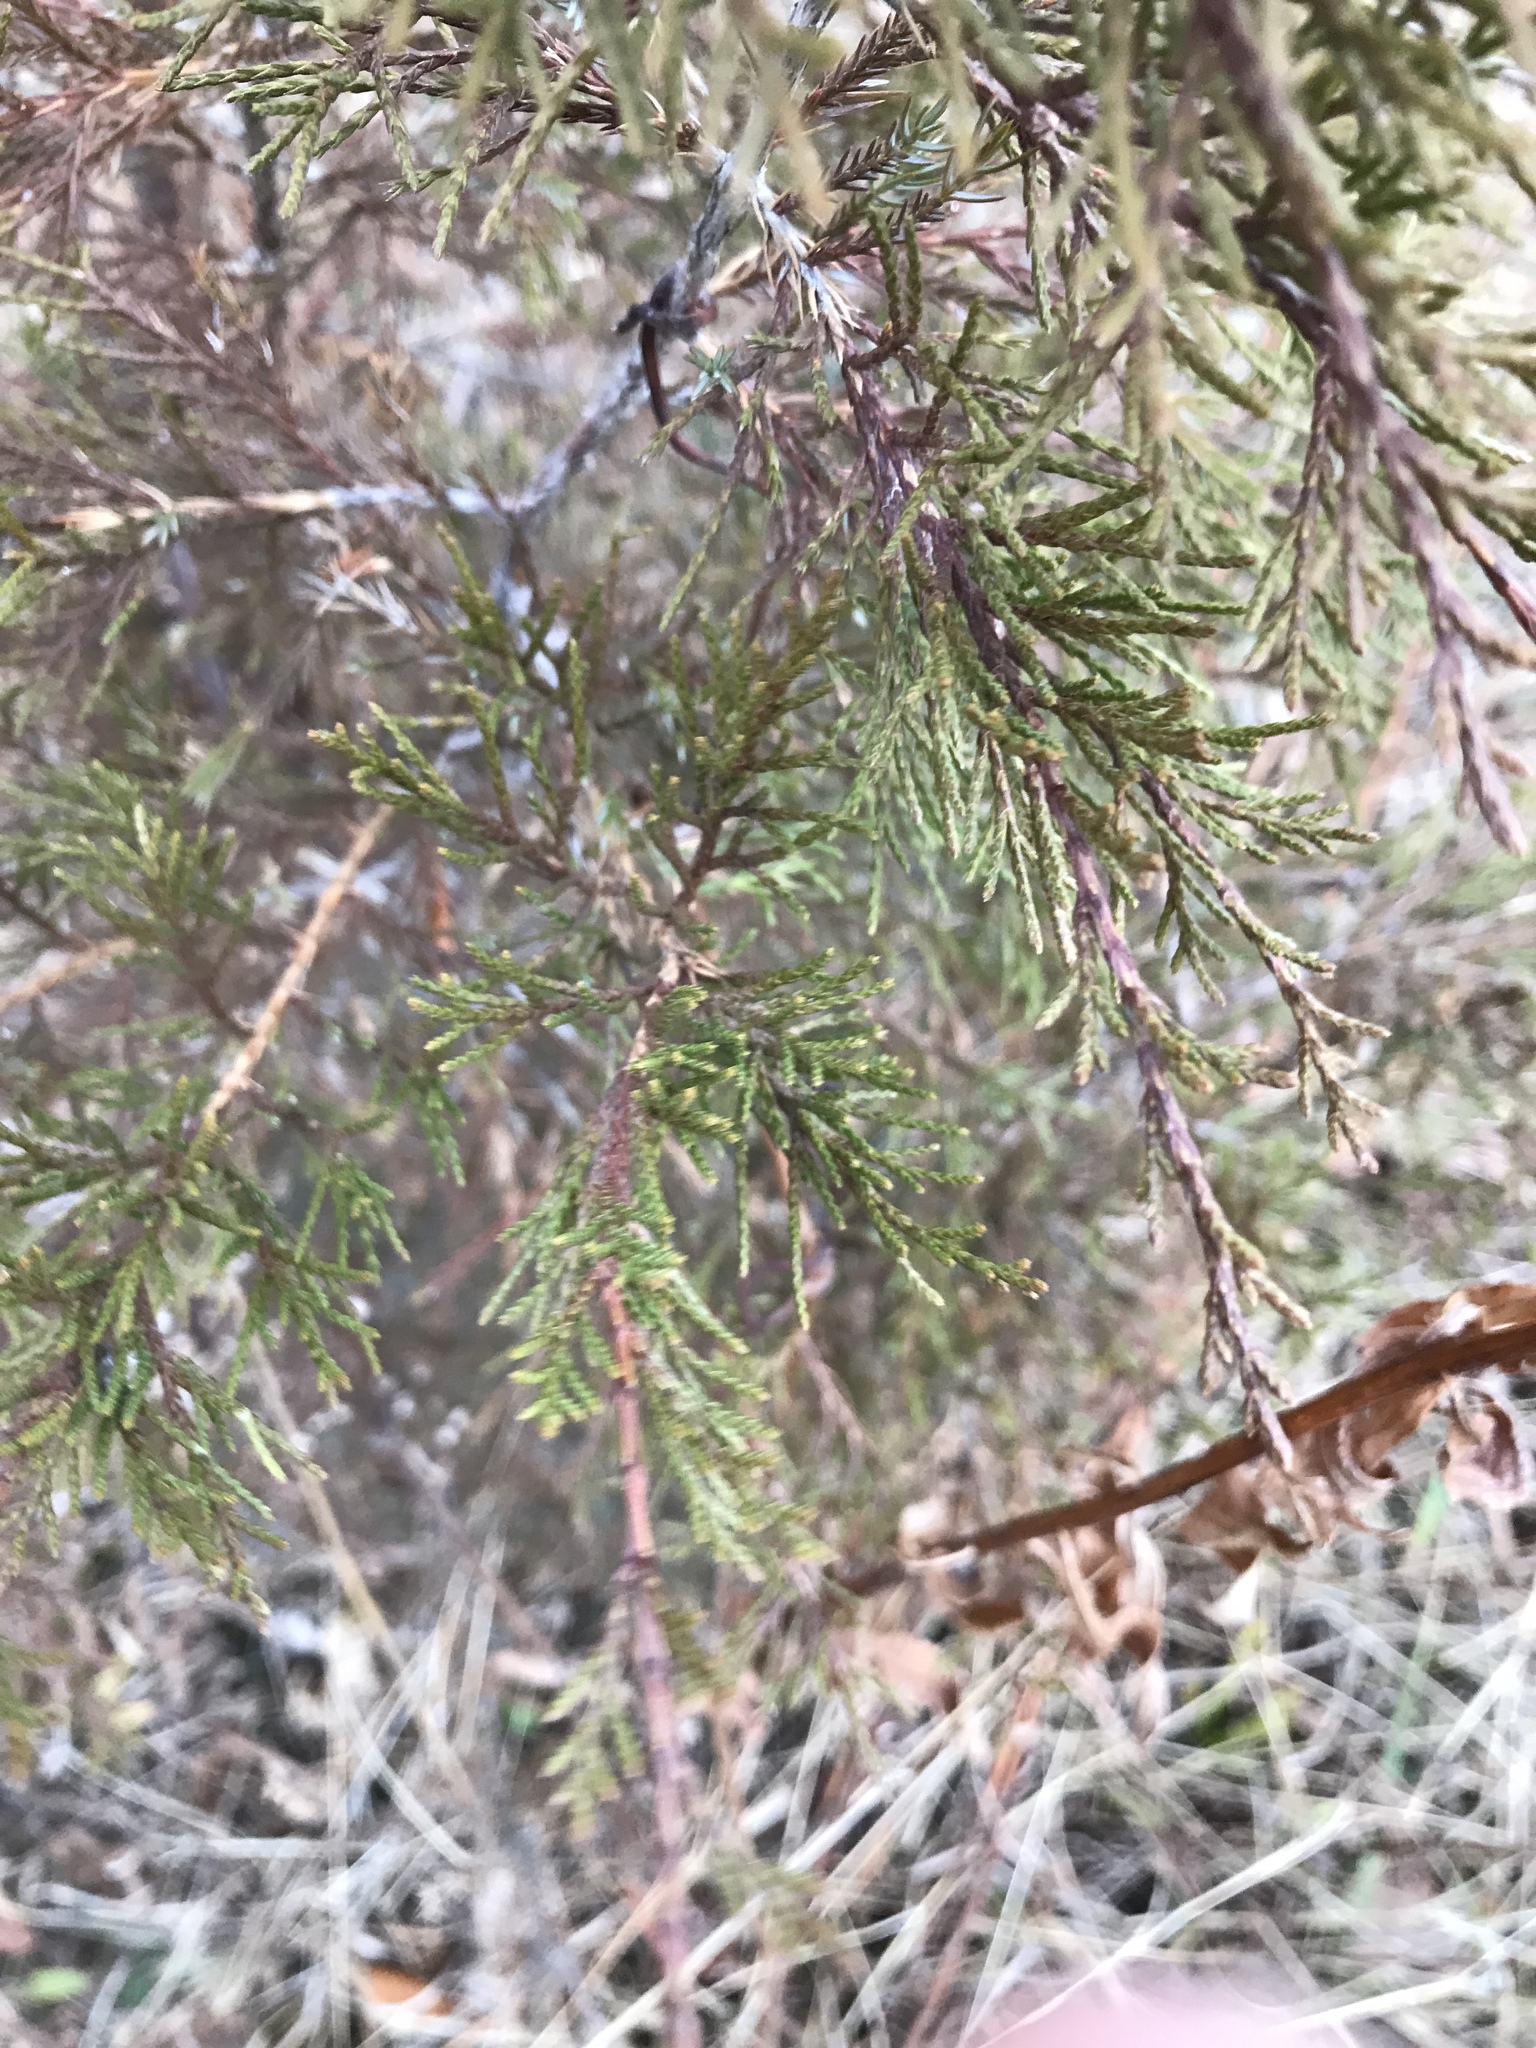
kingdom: Plantae
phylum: Tracheophyta
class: Pinopsida
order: Pinales
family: Cupressaceae
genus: Juniperus
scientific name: Juniperus virginiana
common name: Red juniper
